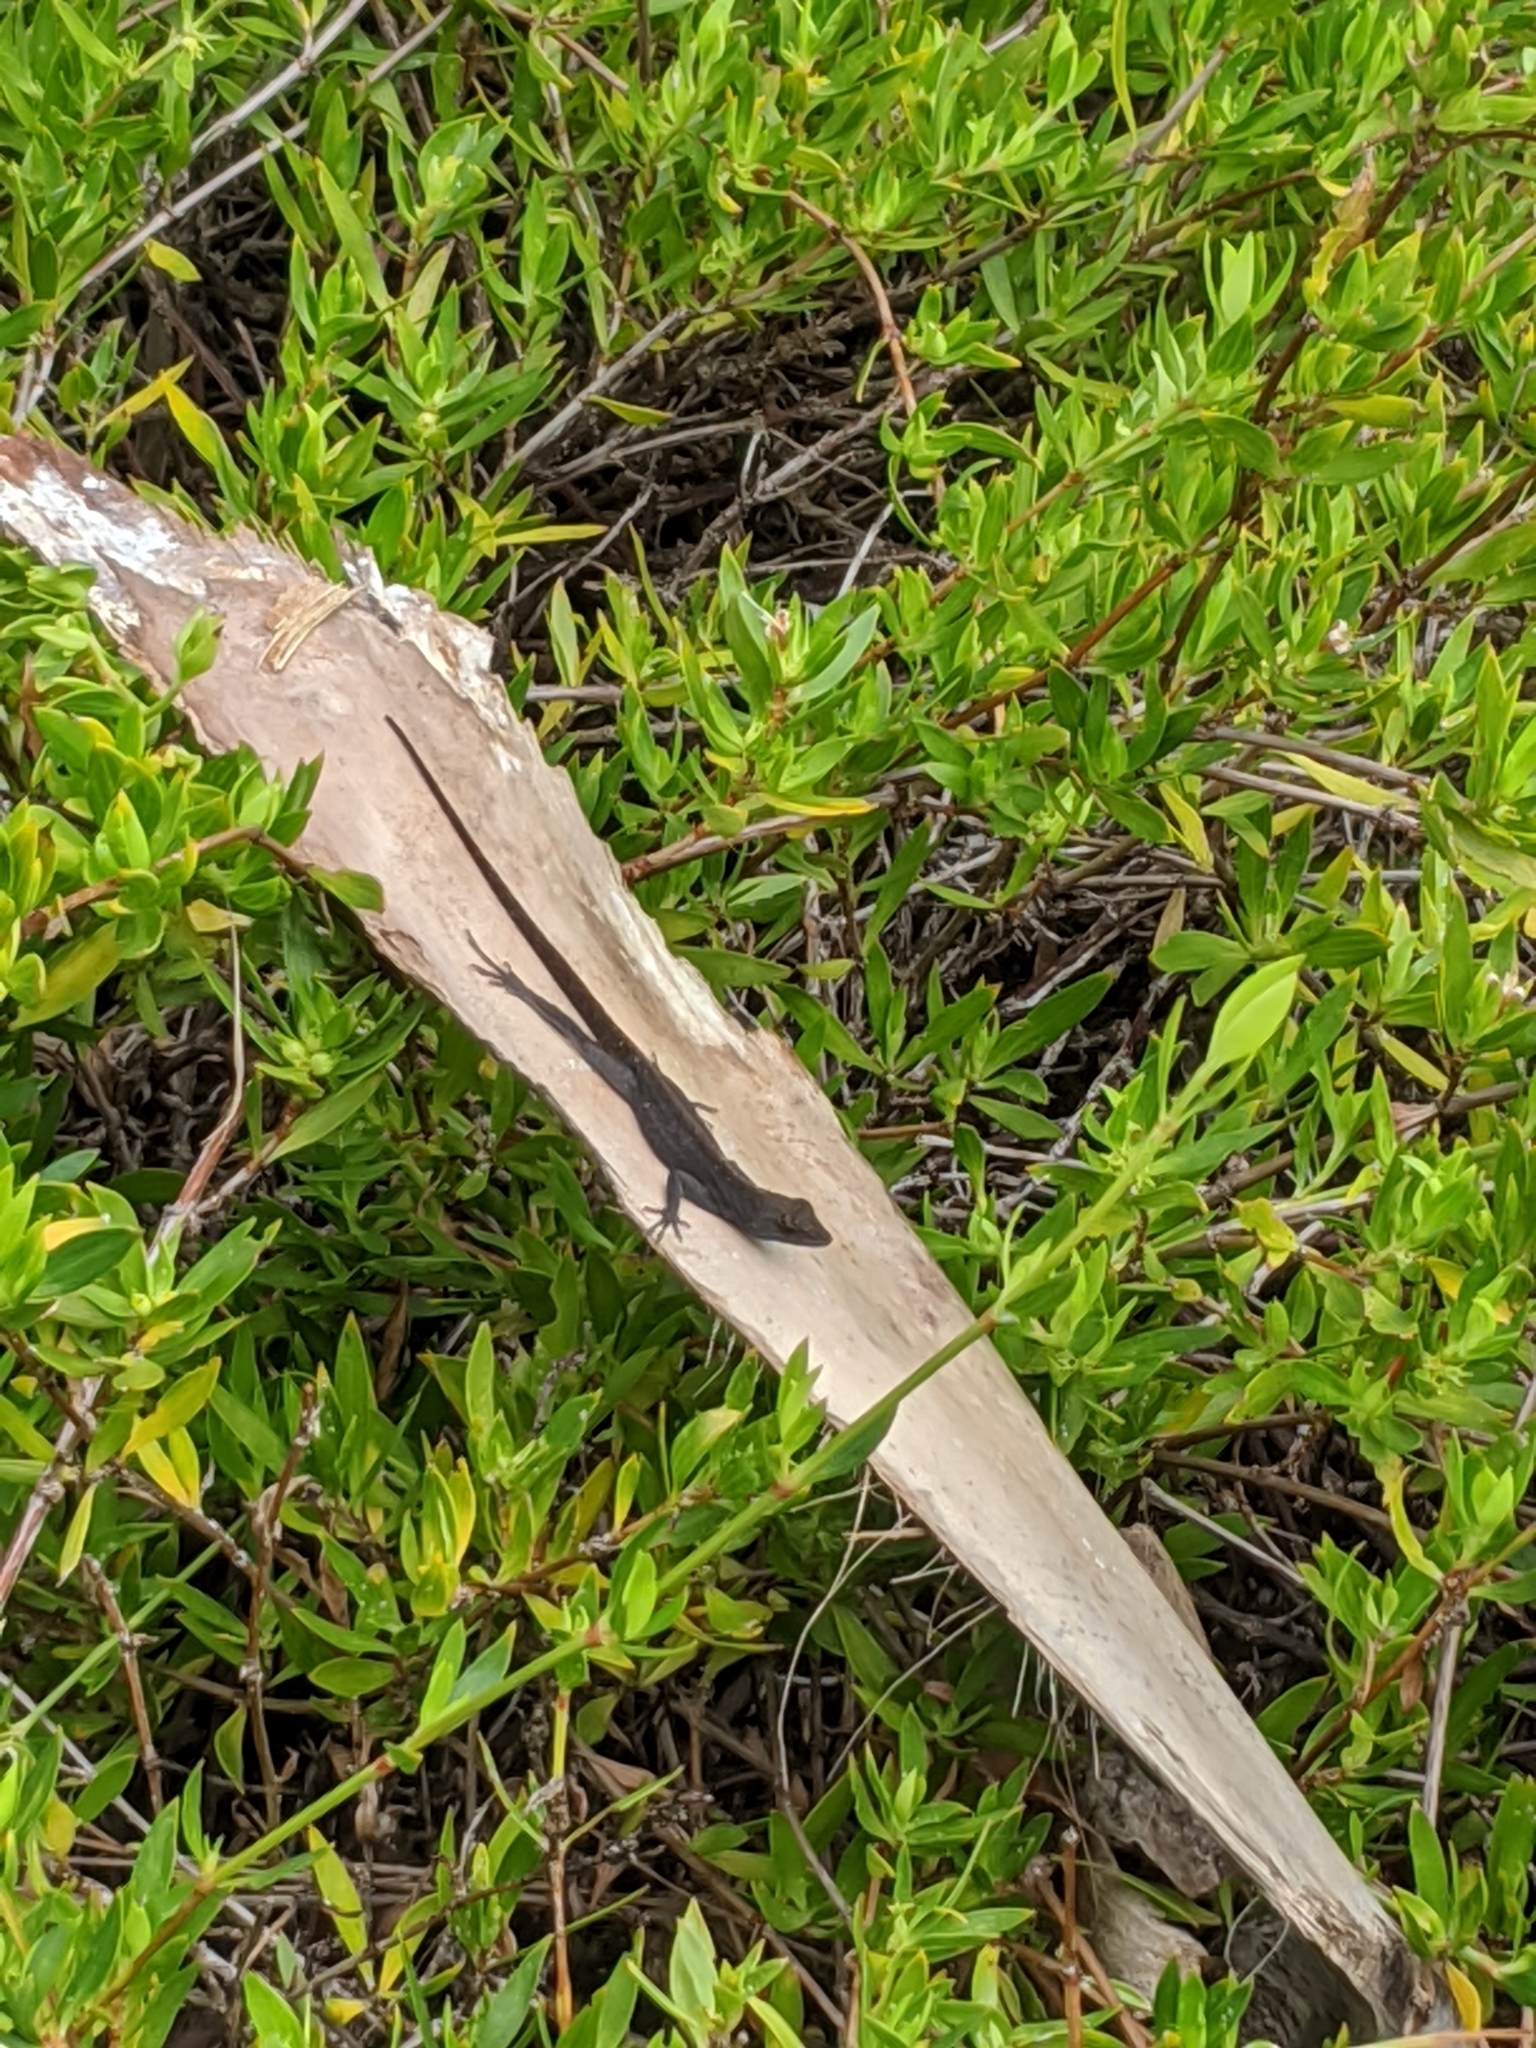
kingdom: Animalia
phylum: Chordata
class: Squamata
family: Dactyloidae
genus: Anolis
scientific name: Anolis sagrei
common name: Brown anole
